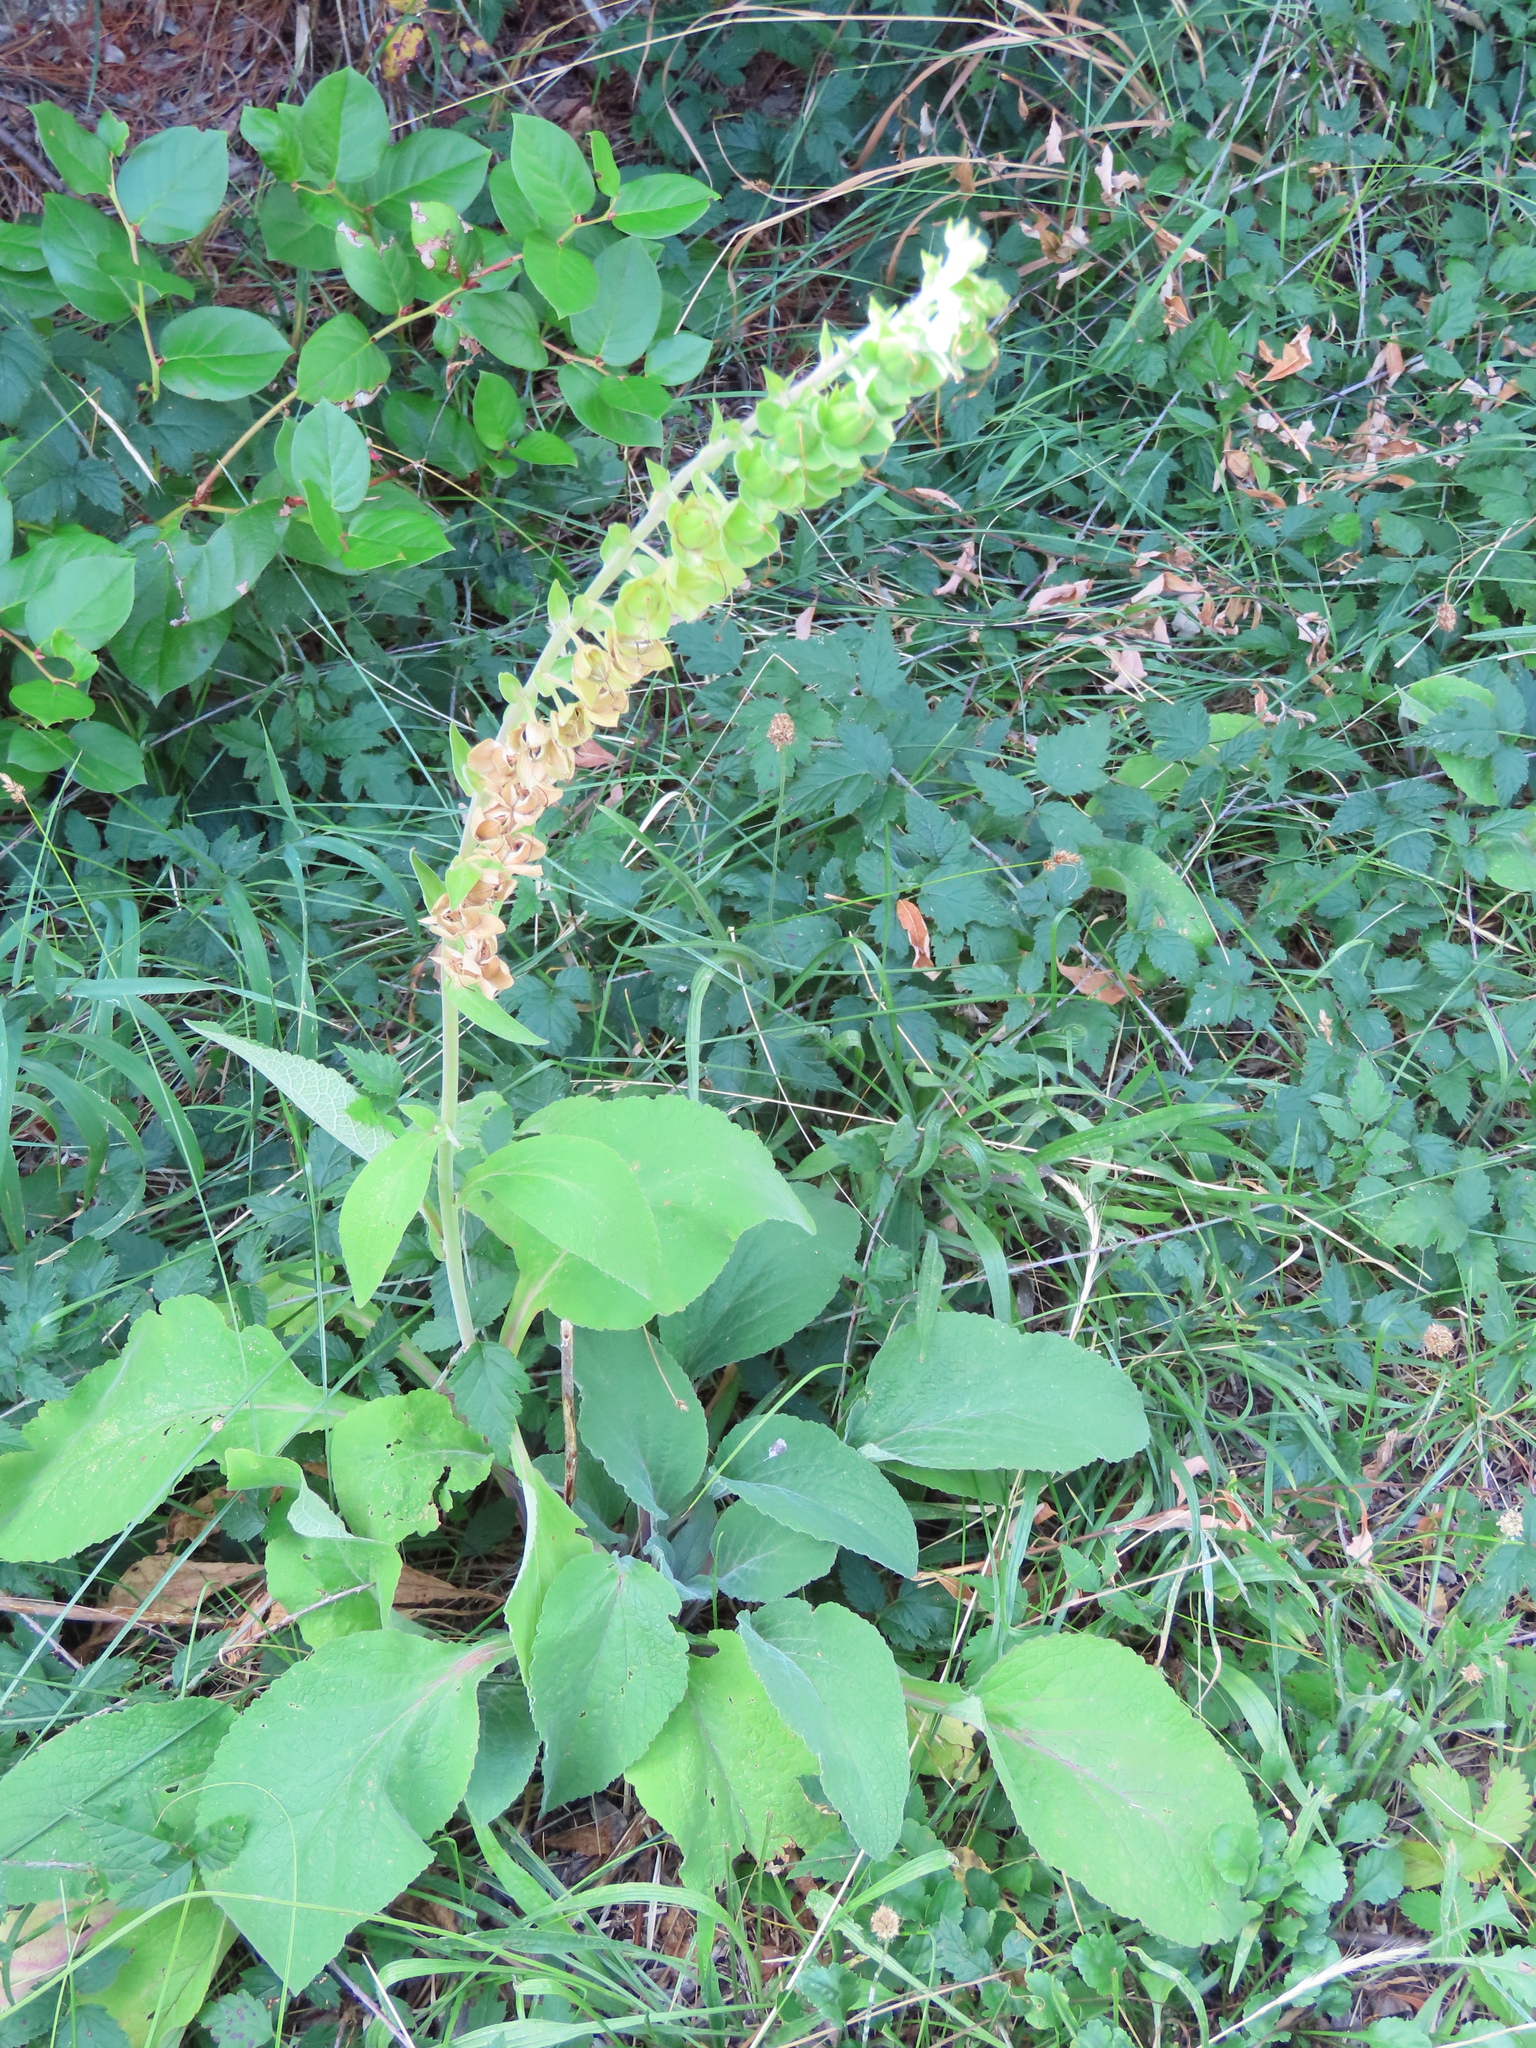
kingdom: Plantae
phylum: Tracheophyta
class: Magnoliopsida
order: Lamiales
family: Plantaginaceae
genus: Digitalis
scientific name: Digitalis purpurea
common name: Foxglove
